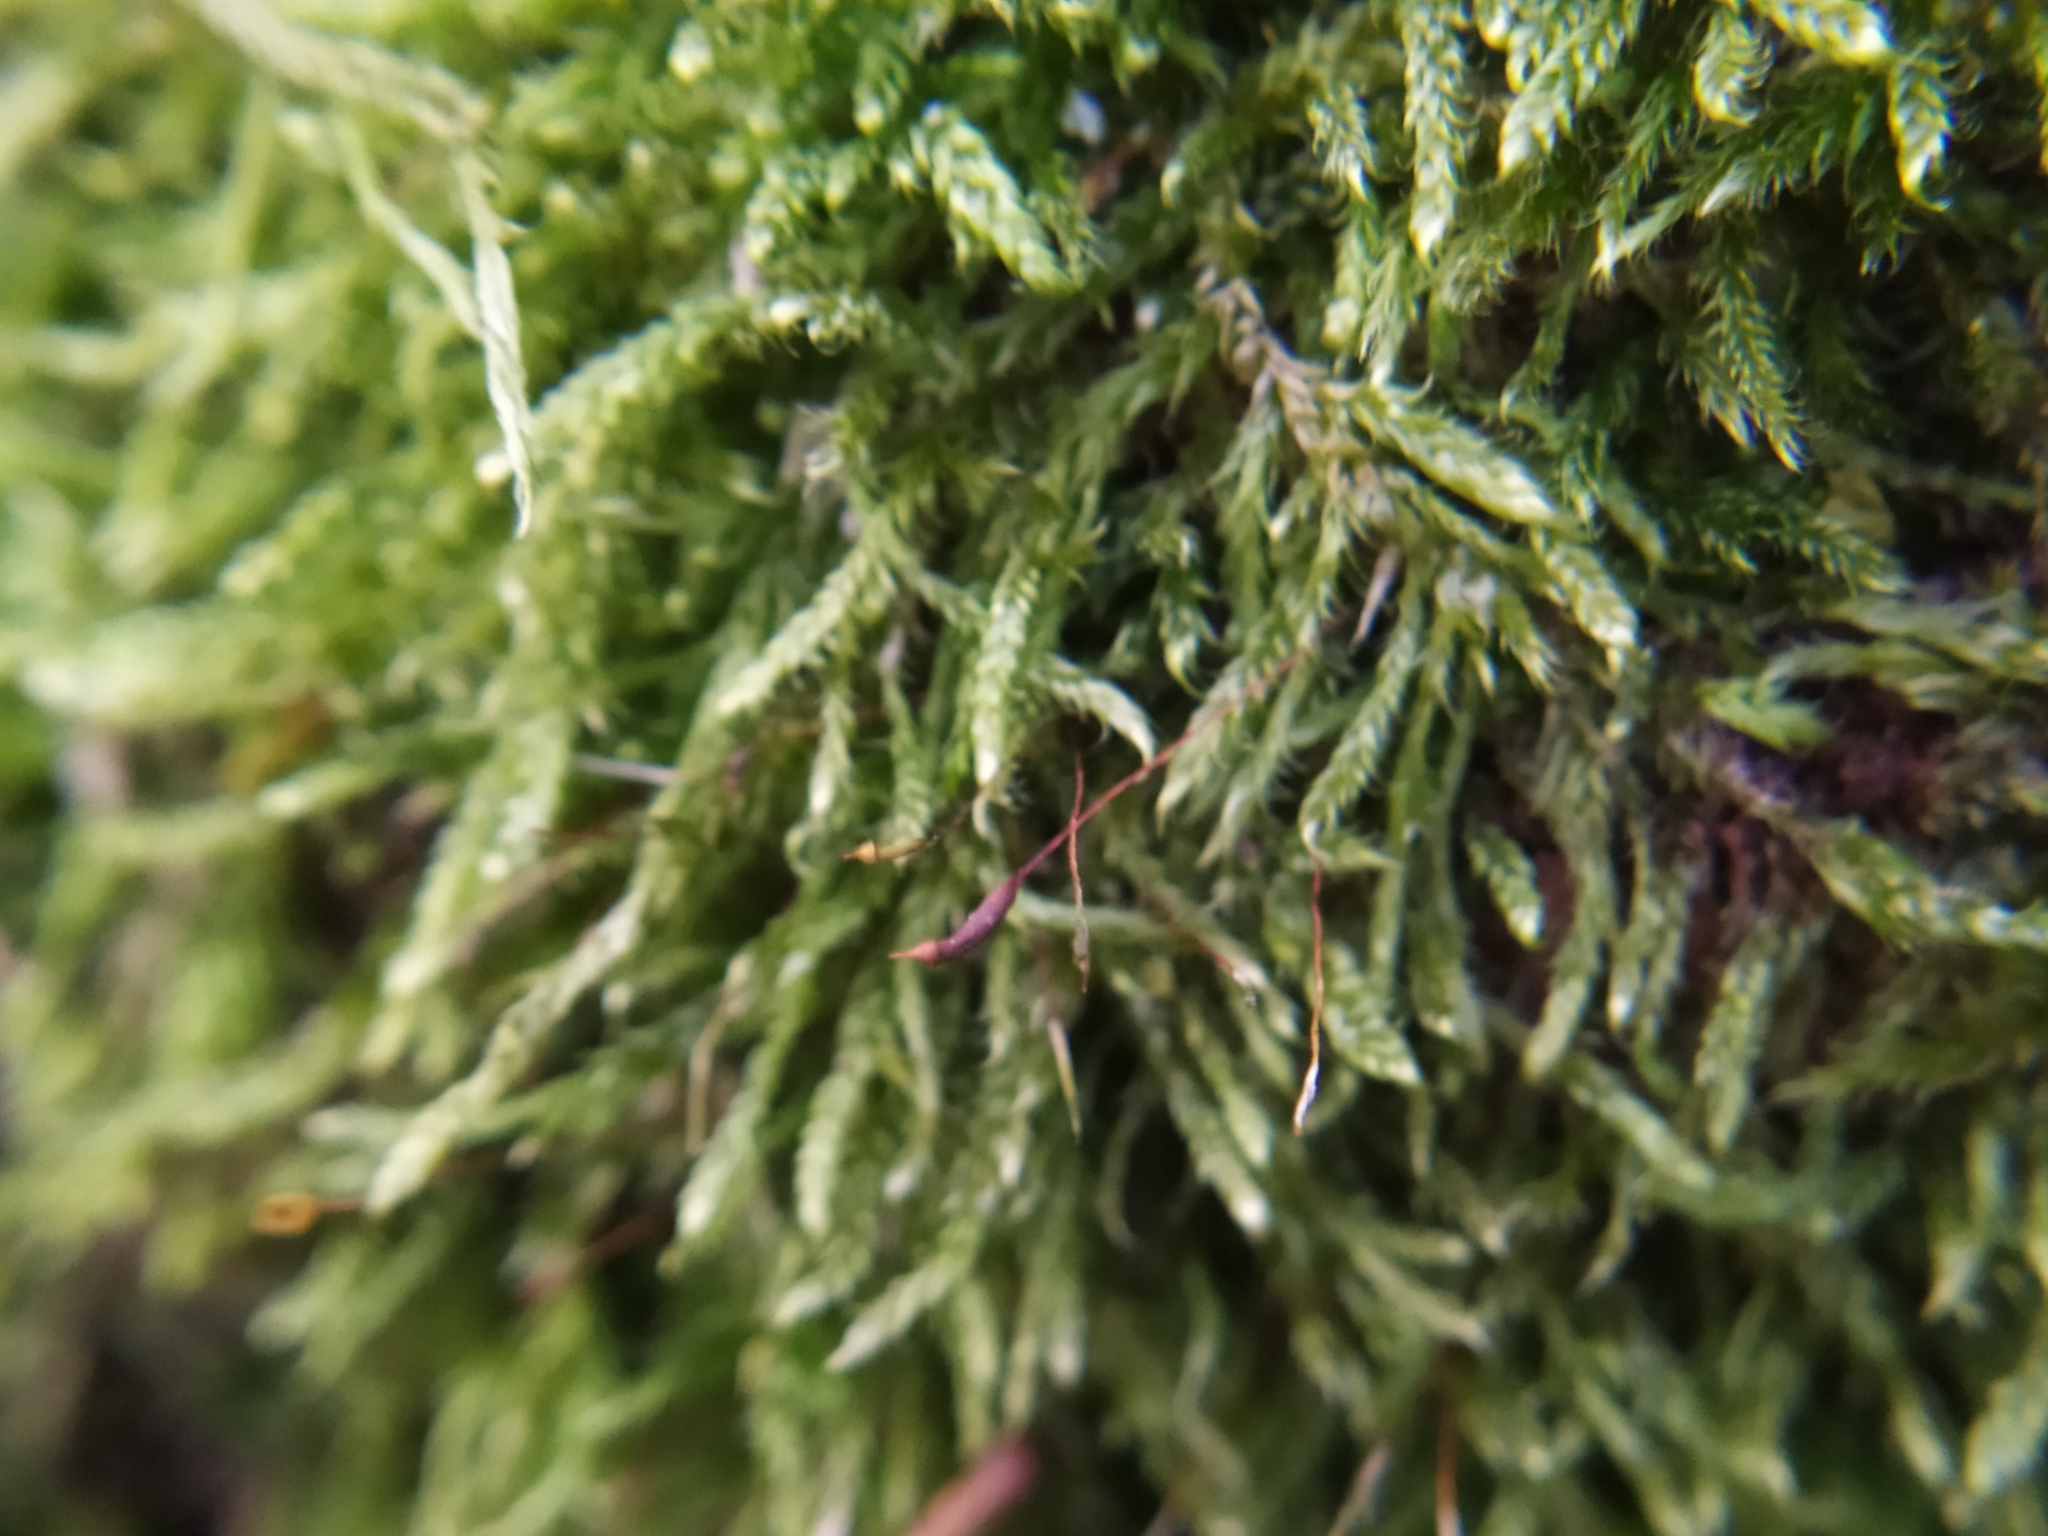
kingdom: Plantae
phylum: Bryophyta
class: Bryopsida
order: Hypnales
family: Hypnaceae
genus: Hypnum
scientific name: Hypnum cupressiforme
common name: Cypress-leaved plait-moss
